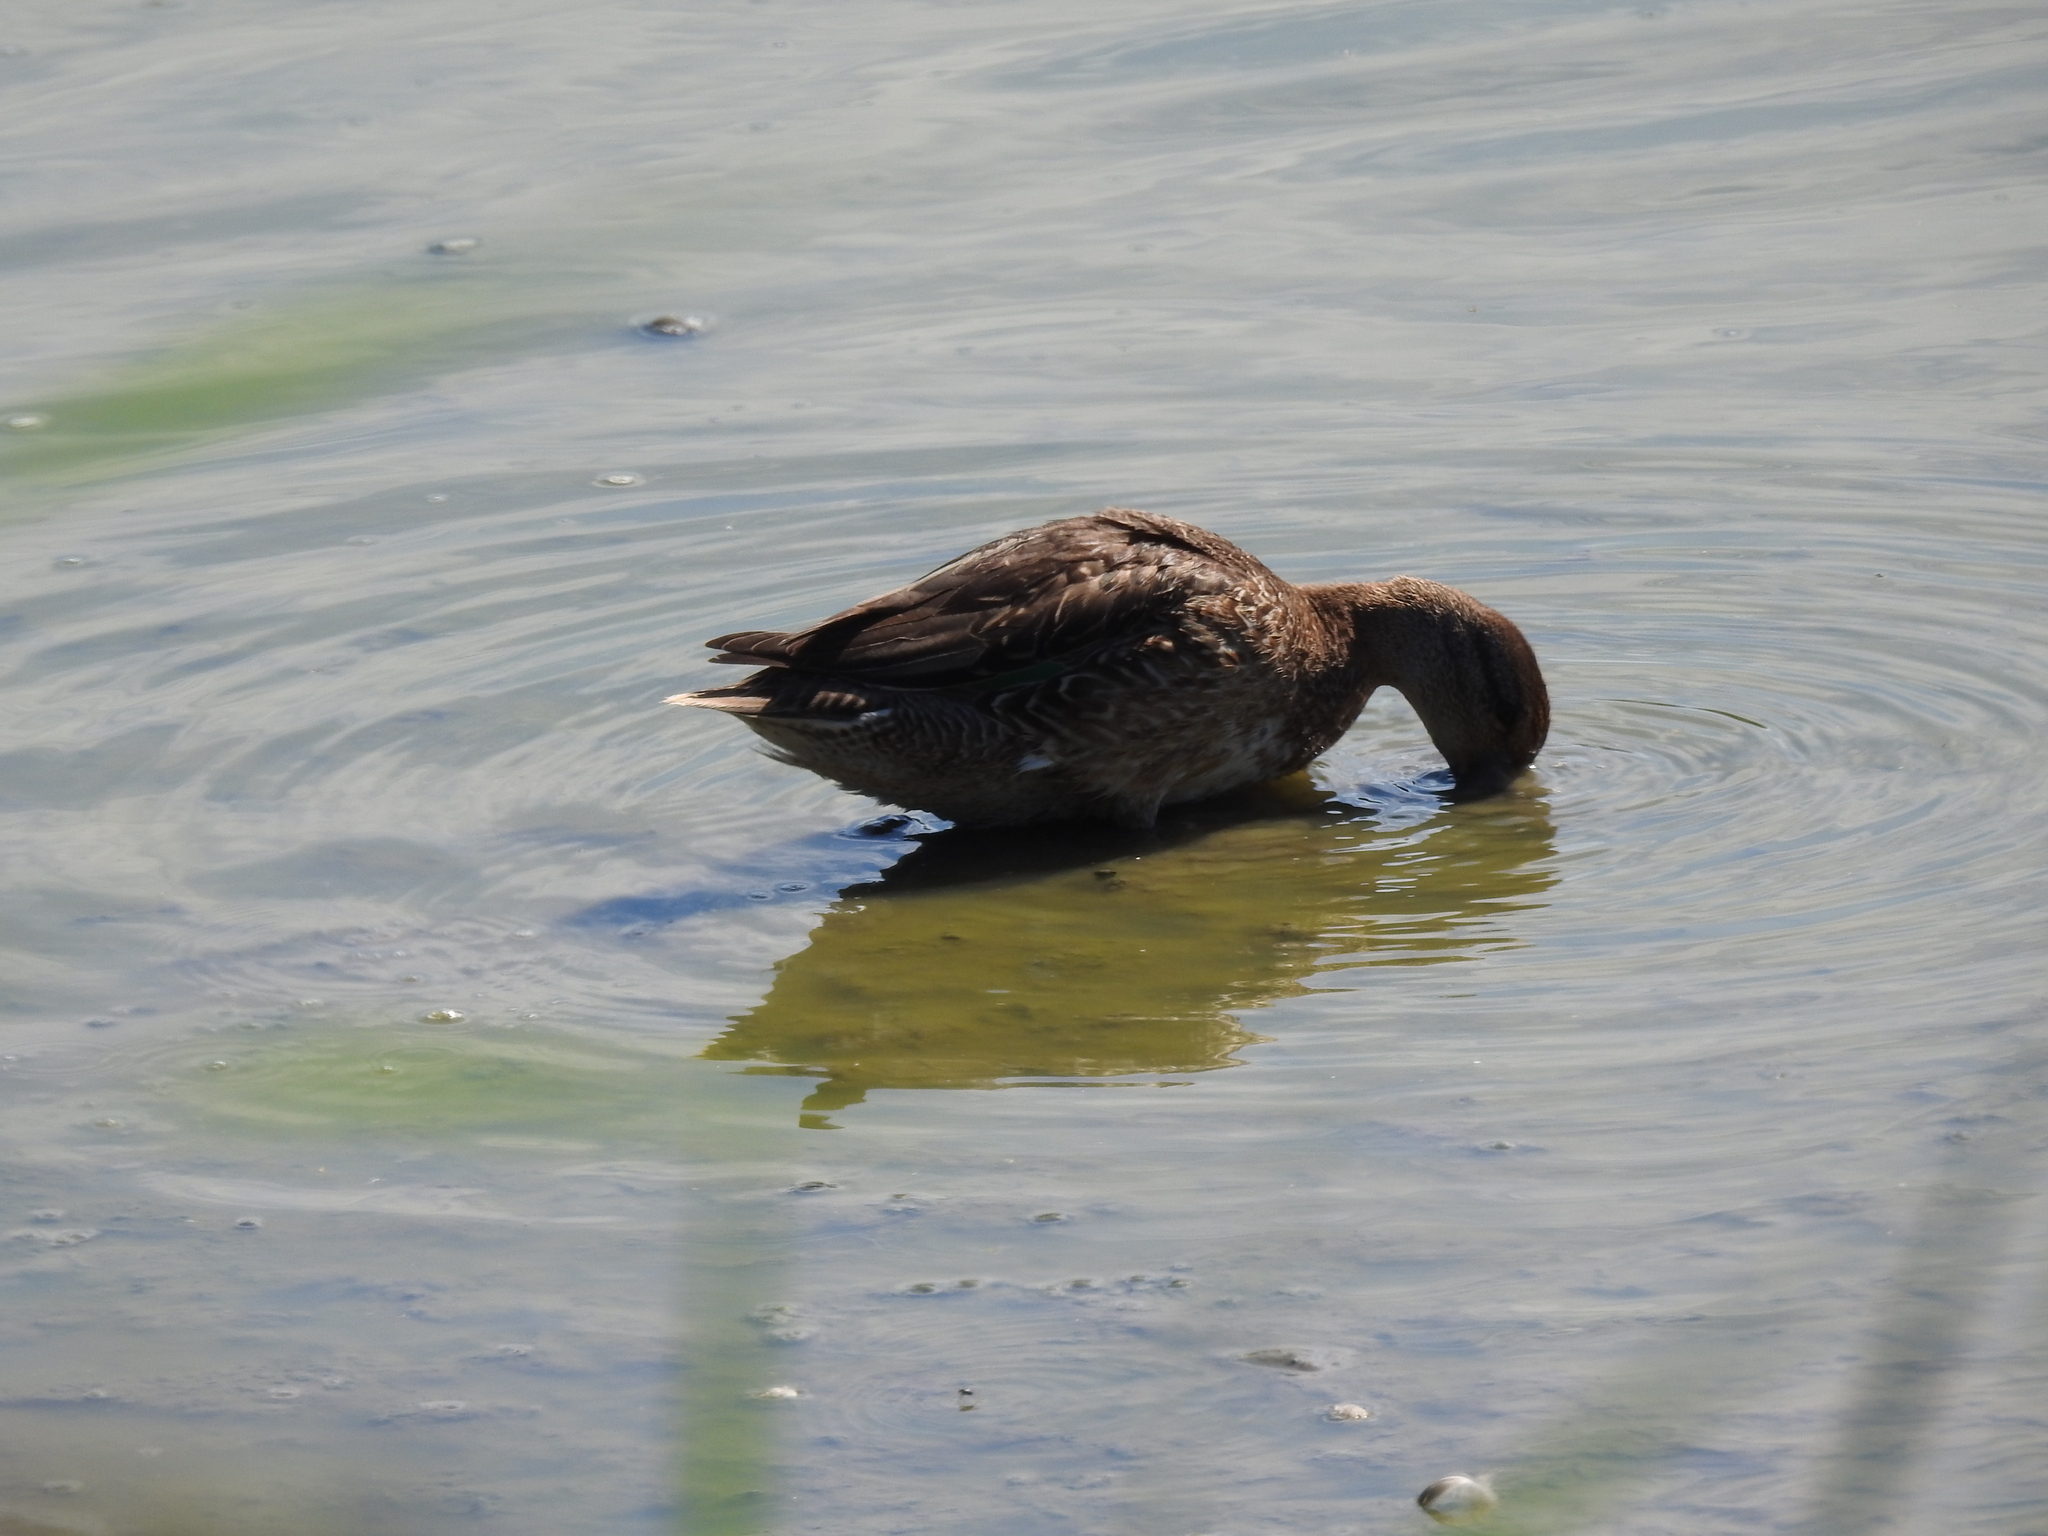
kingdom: Animalia
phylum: Chordata
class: Aves
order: Anseriformes
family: Anatidae
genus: Anas
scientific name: Anas crecca
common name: Eurasian teal
